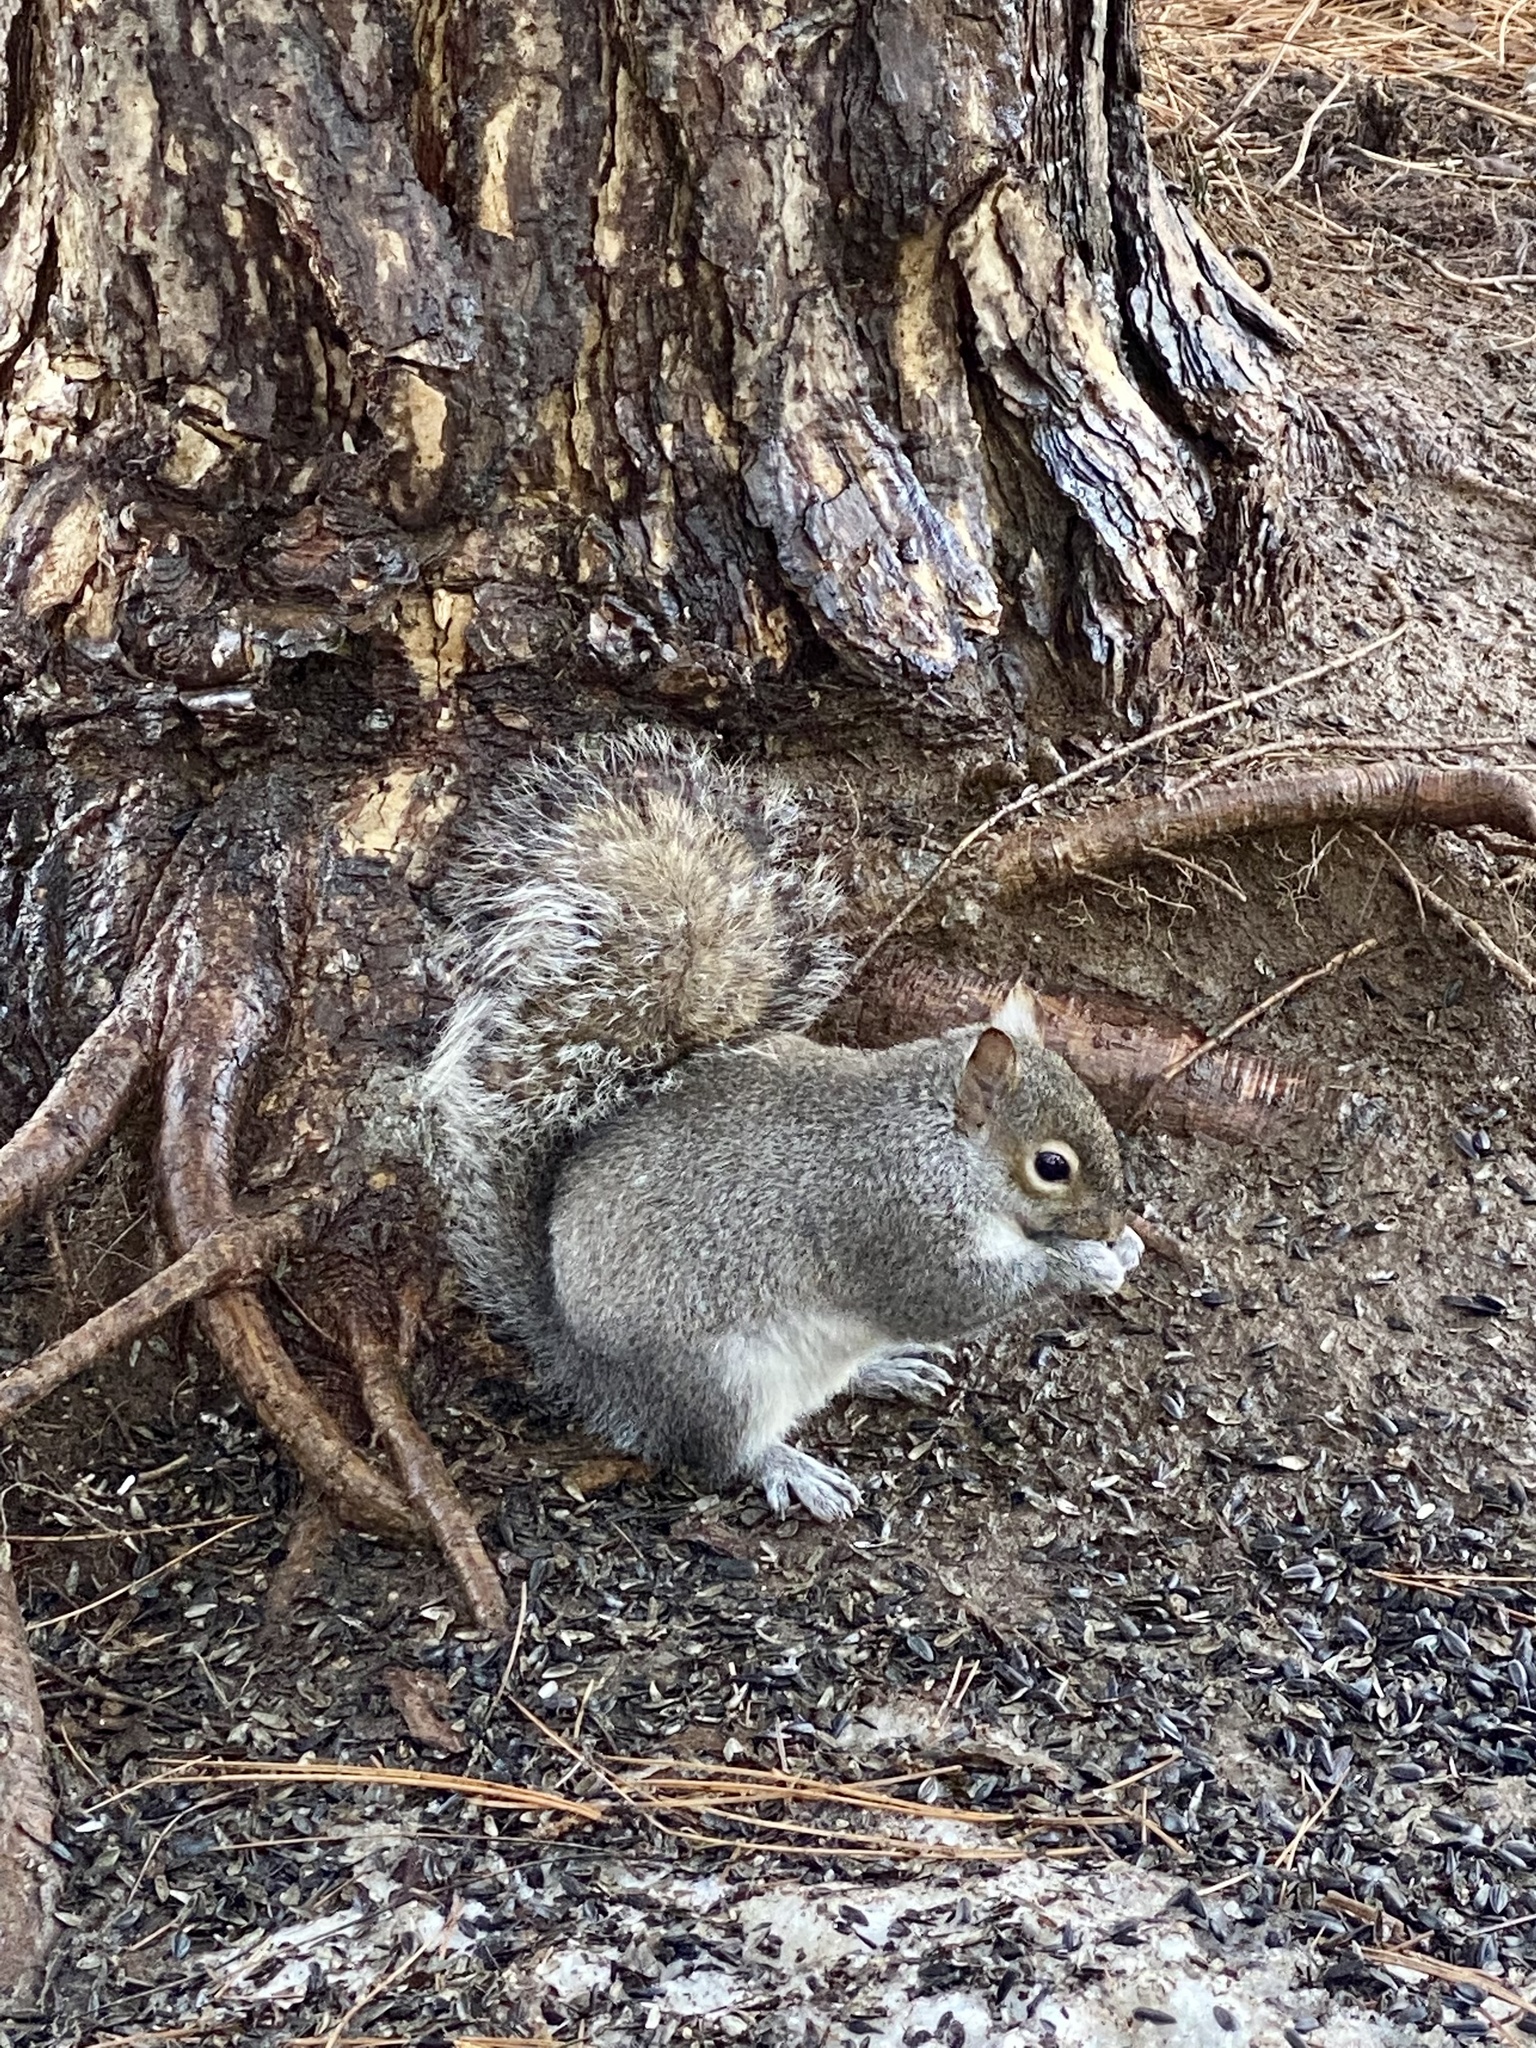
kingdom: Animalia
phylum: Chordata
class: Mammalia
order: Rodentia
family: Sciuridae
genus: Sciurus
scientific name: Sciurus carolinensis
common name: Eastern gray squirrel
